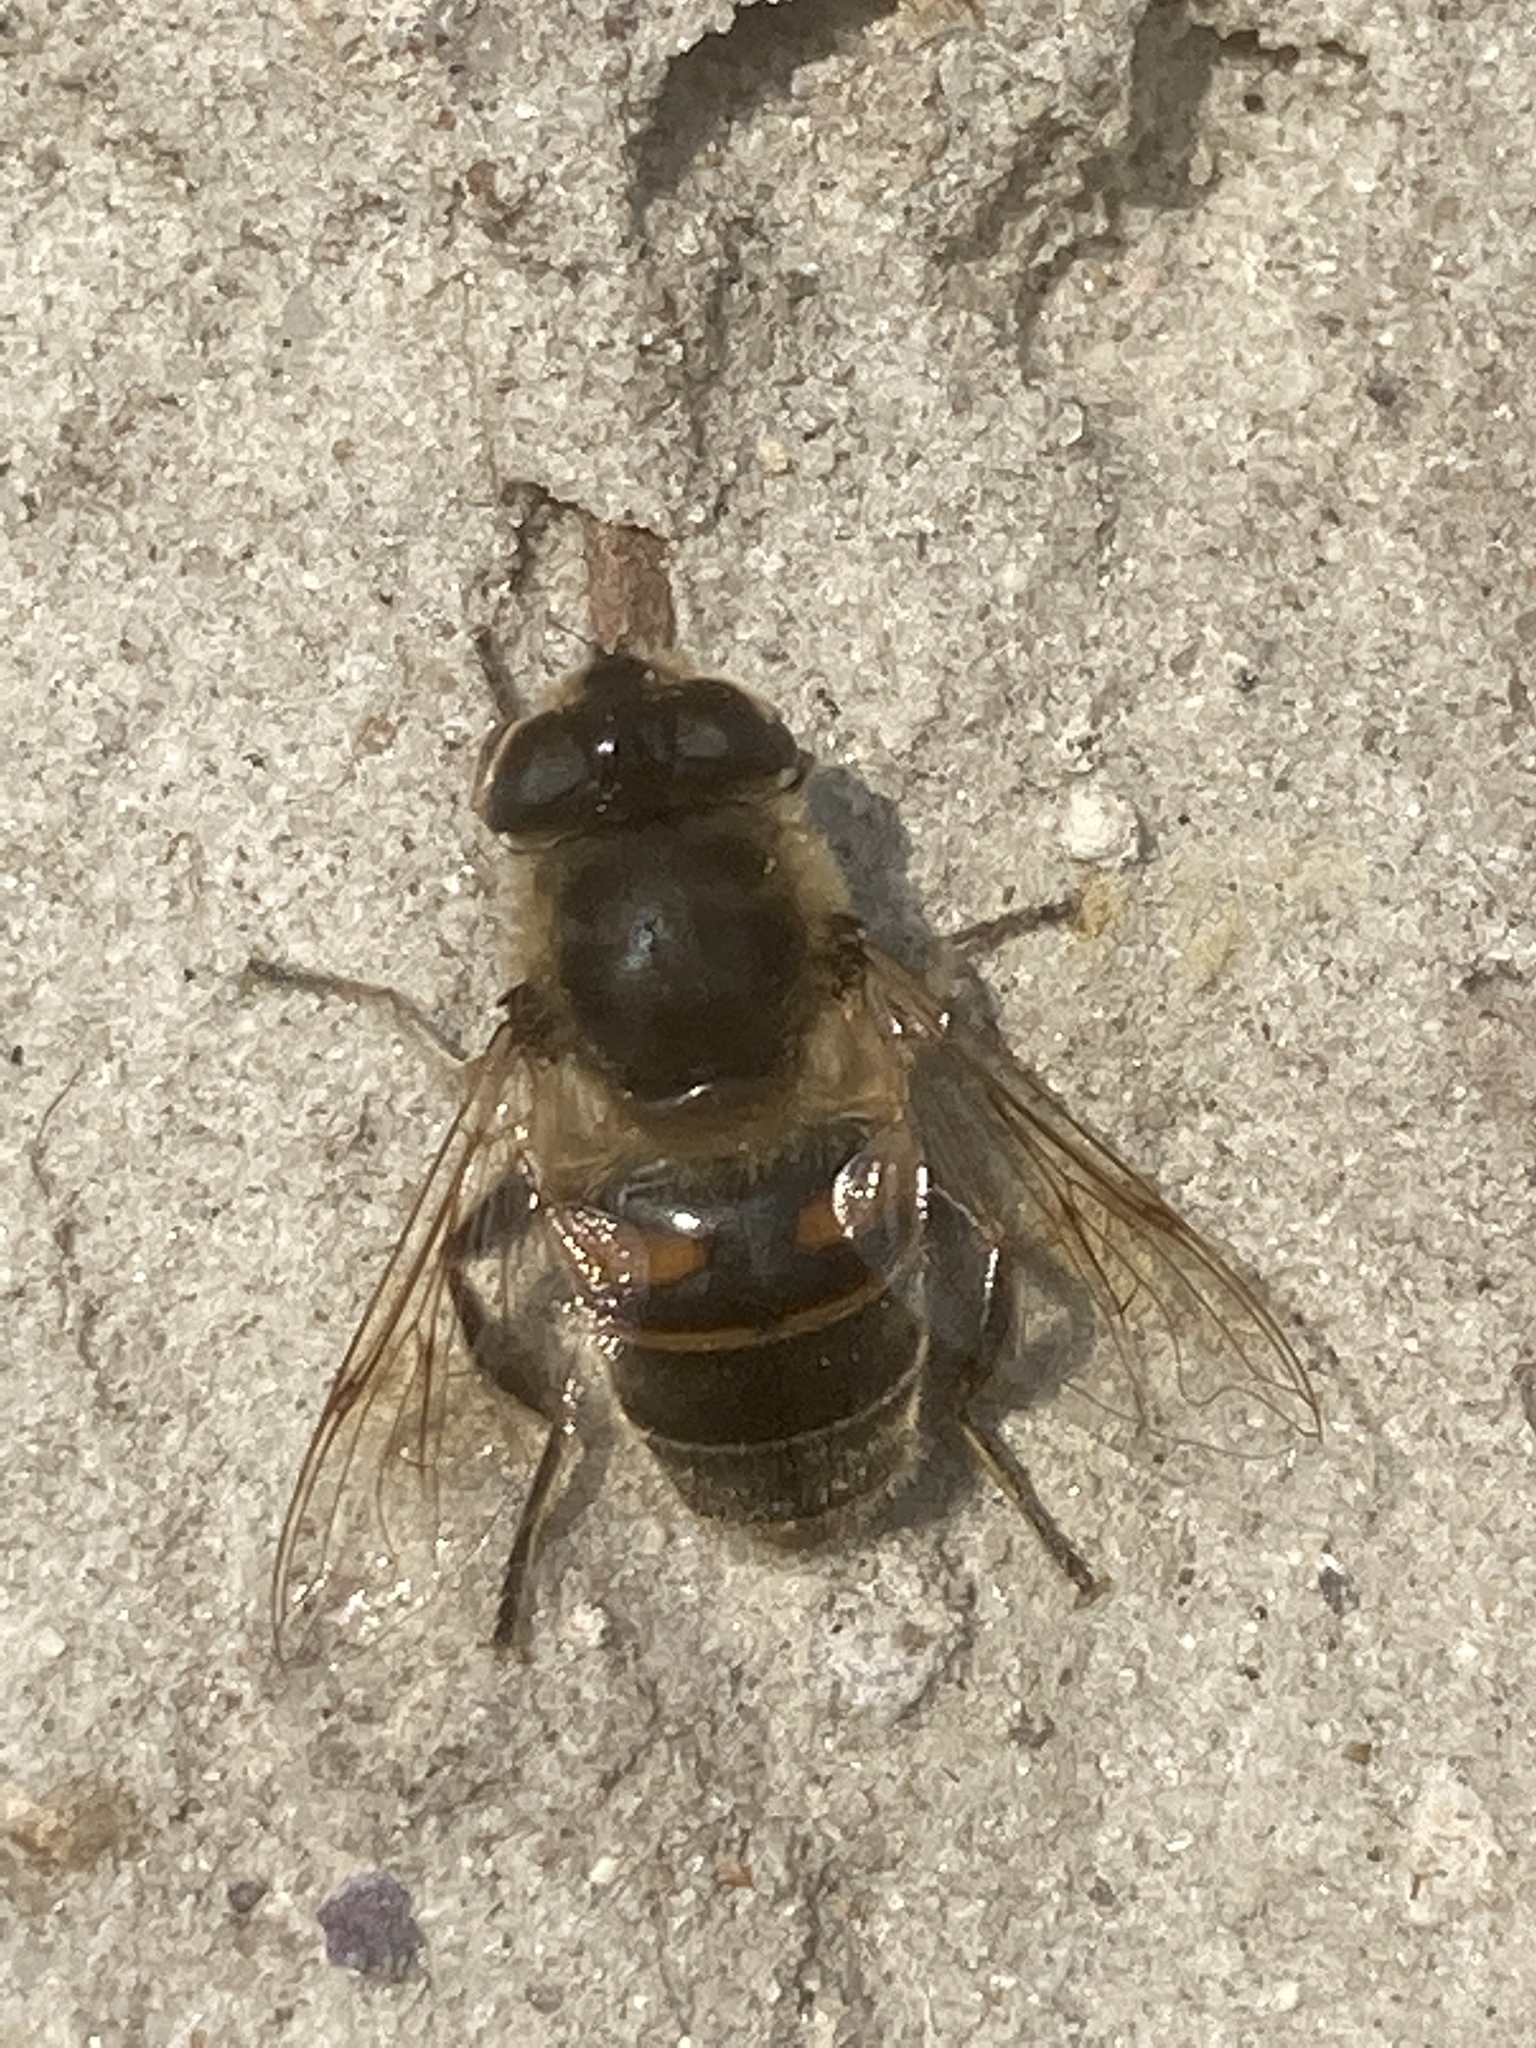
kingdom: Animalia
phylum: Arthropoda
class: Insecta
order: Diptera
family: Syrphidae
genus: Eristalis
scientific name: Eristalis tenax
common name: Drone fly
